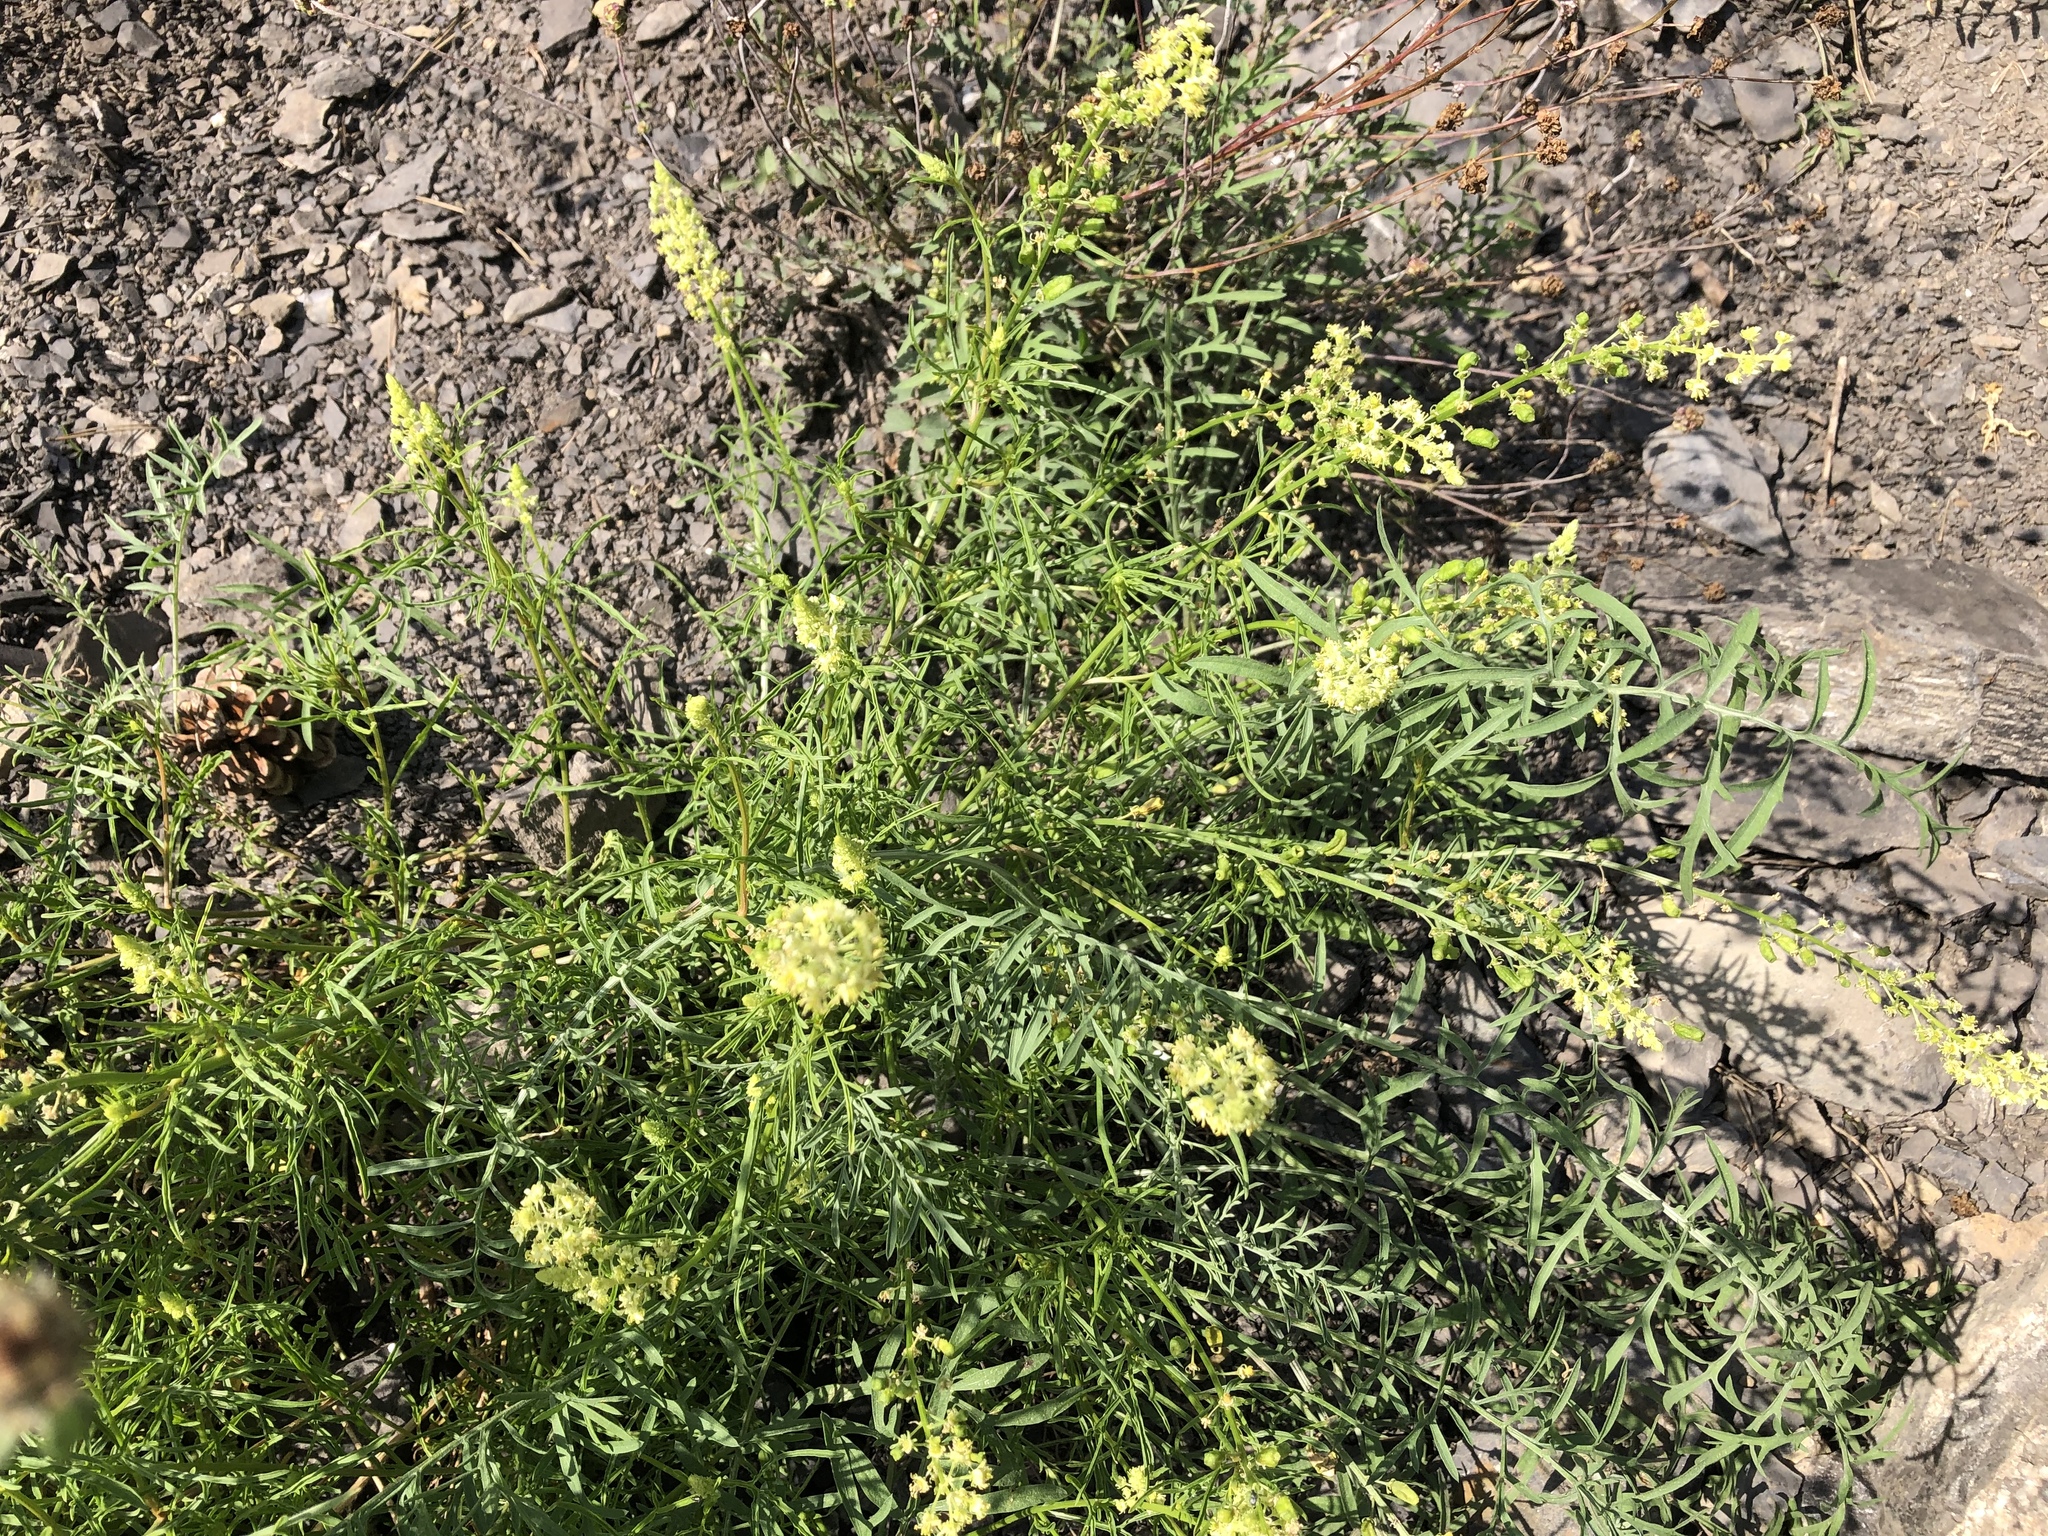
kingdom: Plantae
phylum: Tracheophyta
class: Magnoliopsida
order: Brassicales
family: Resedaceae
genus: Reseda
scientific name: Reseda lutea
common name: Wild mignonette
